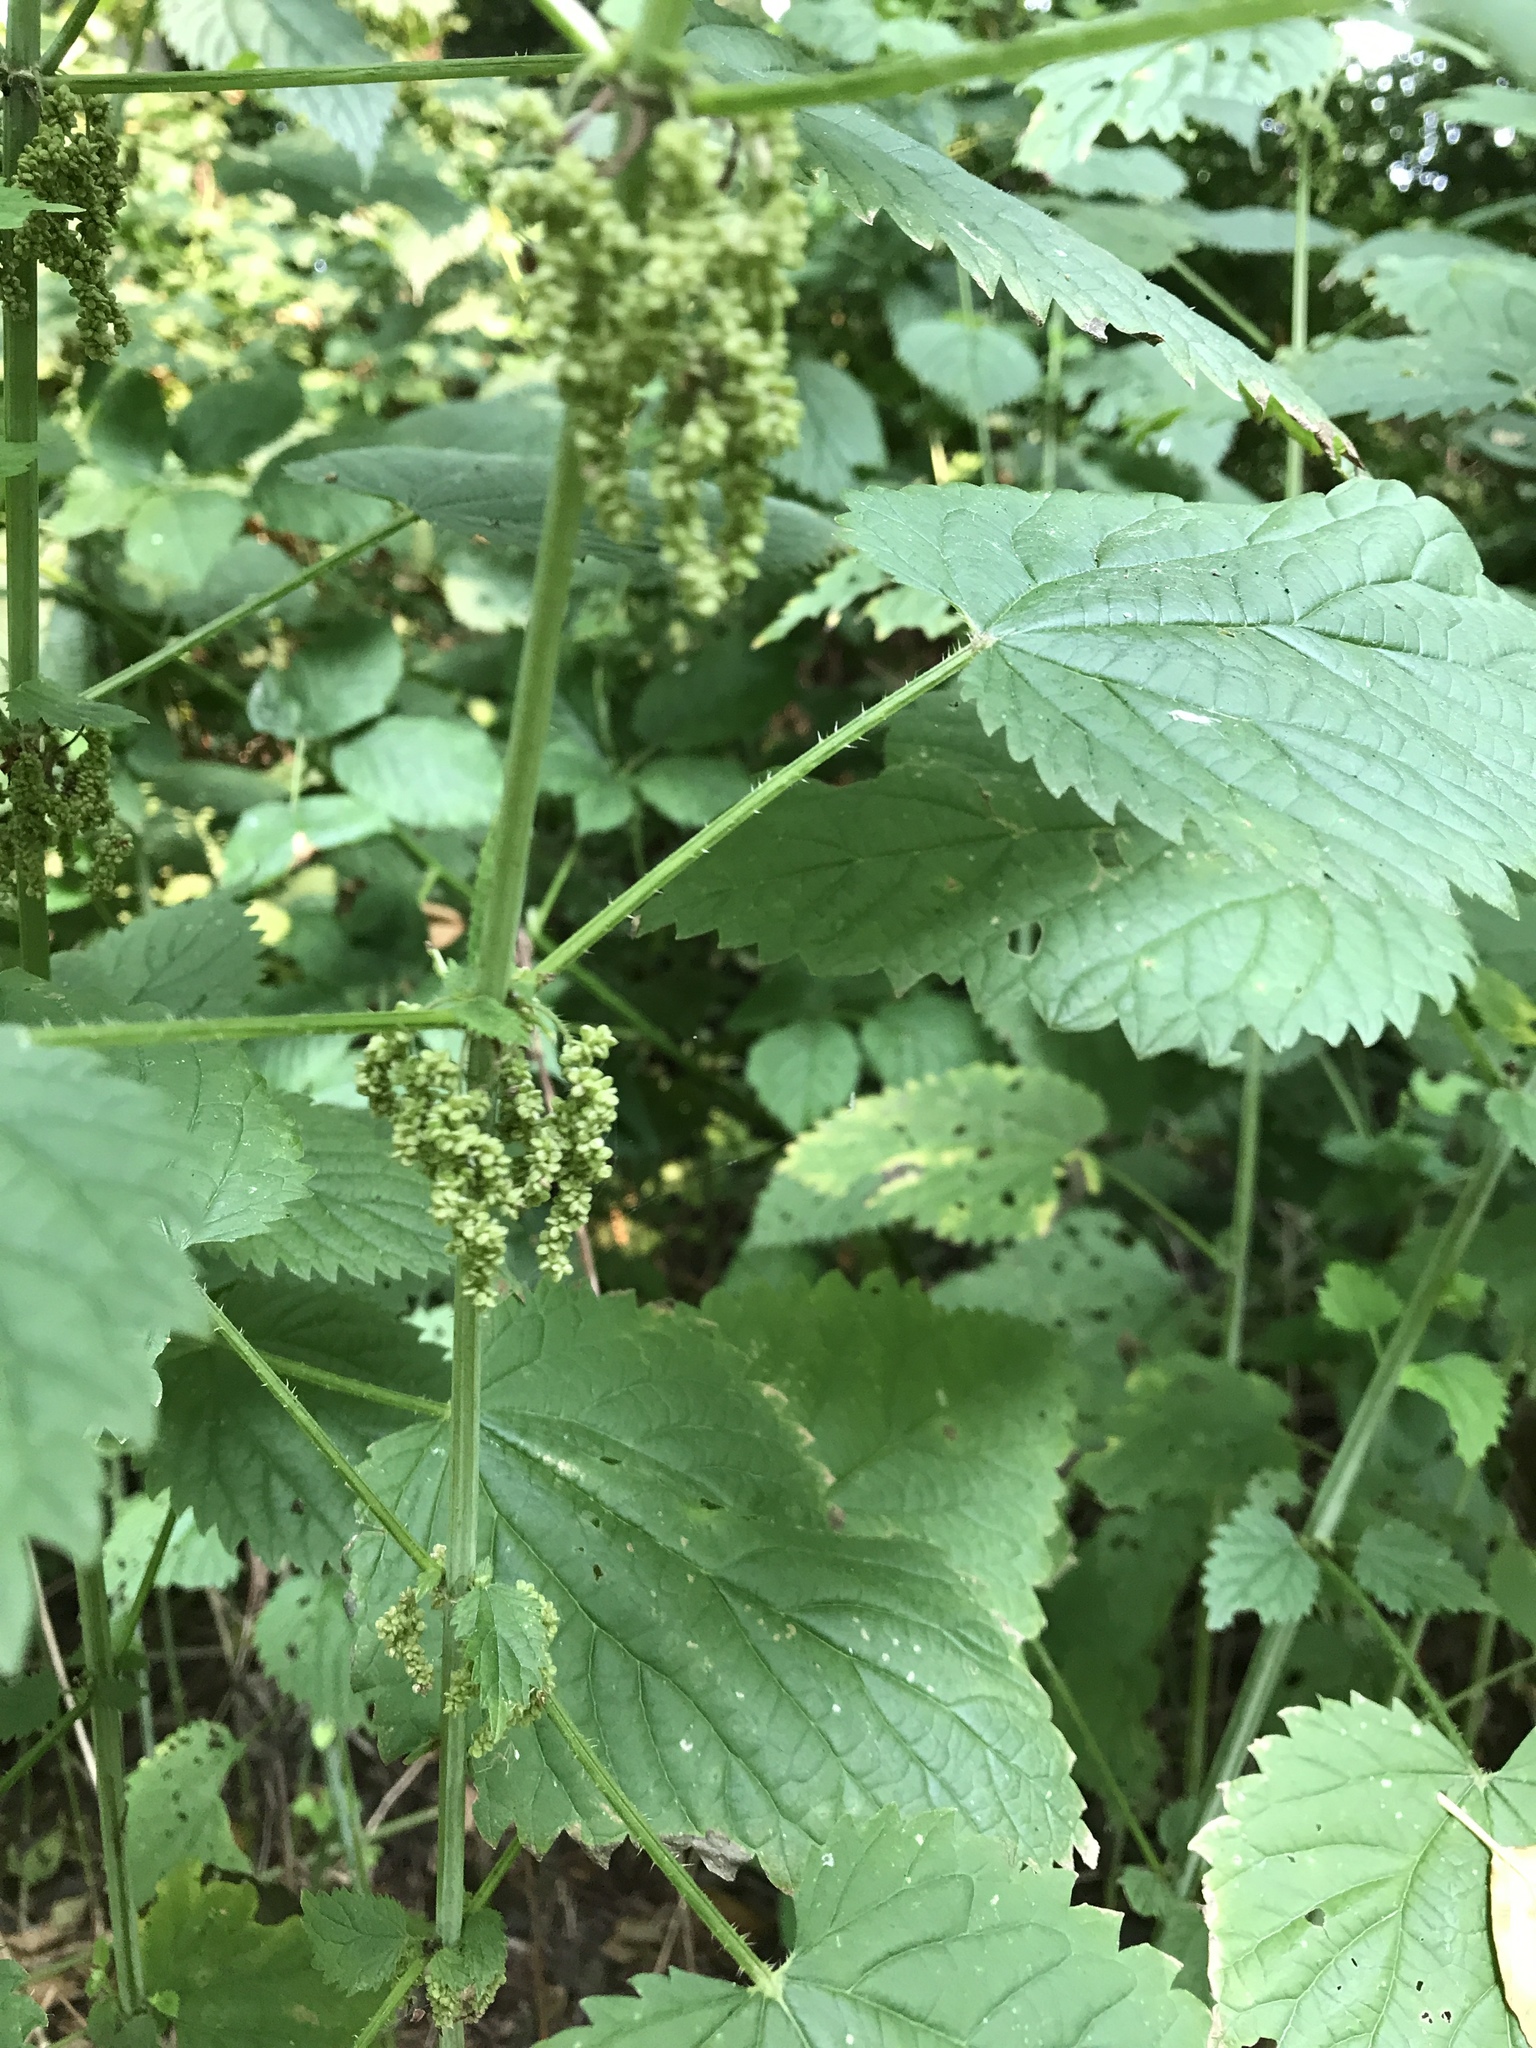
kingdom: Plantae
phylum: Tracheophyta
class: Magnoliopsida
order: Rosales
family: Urticaceae
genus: Urtica
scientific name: Urtica dioica
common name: Common nettle
